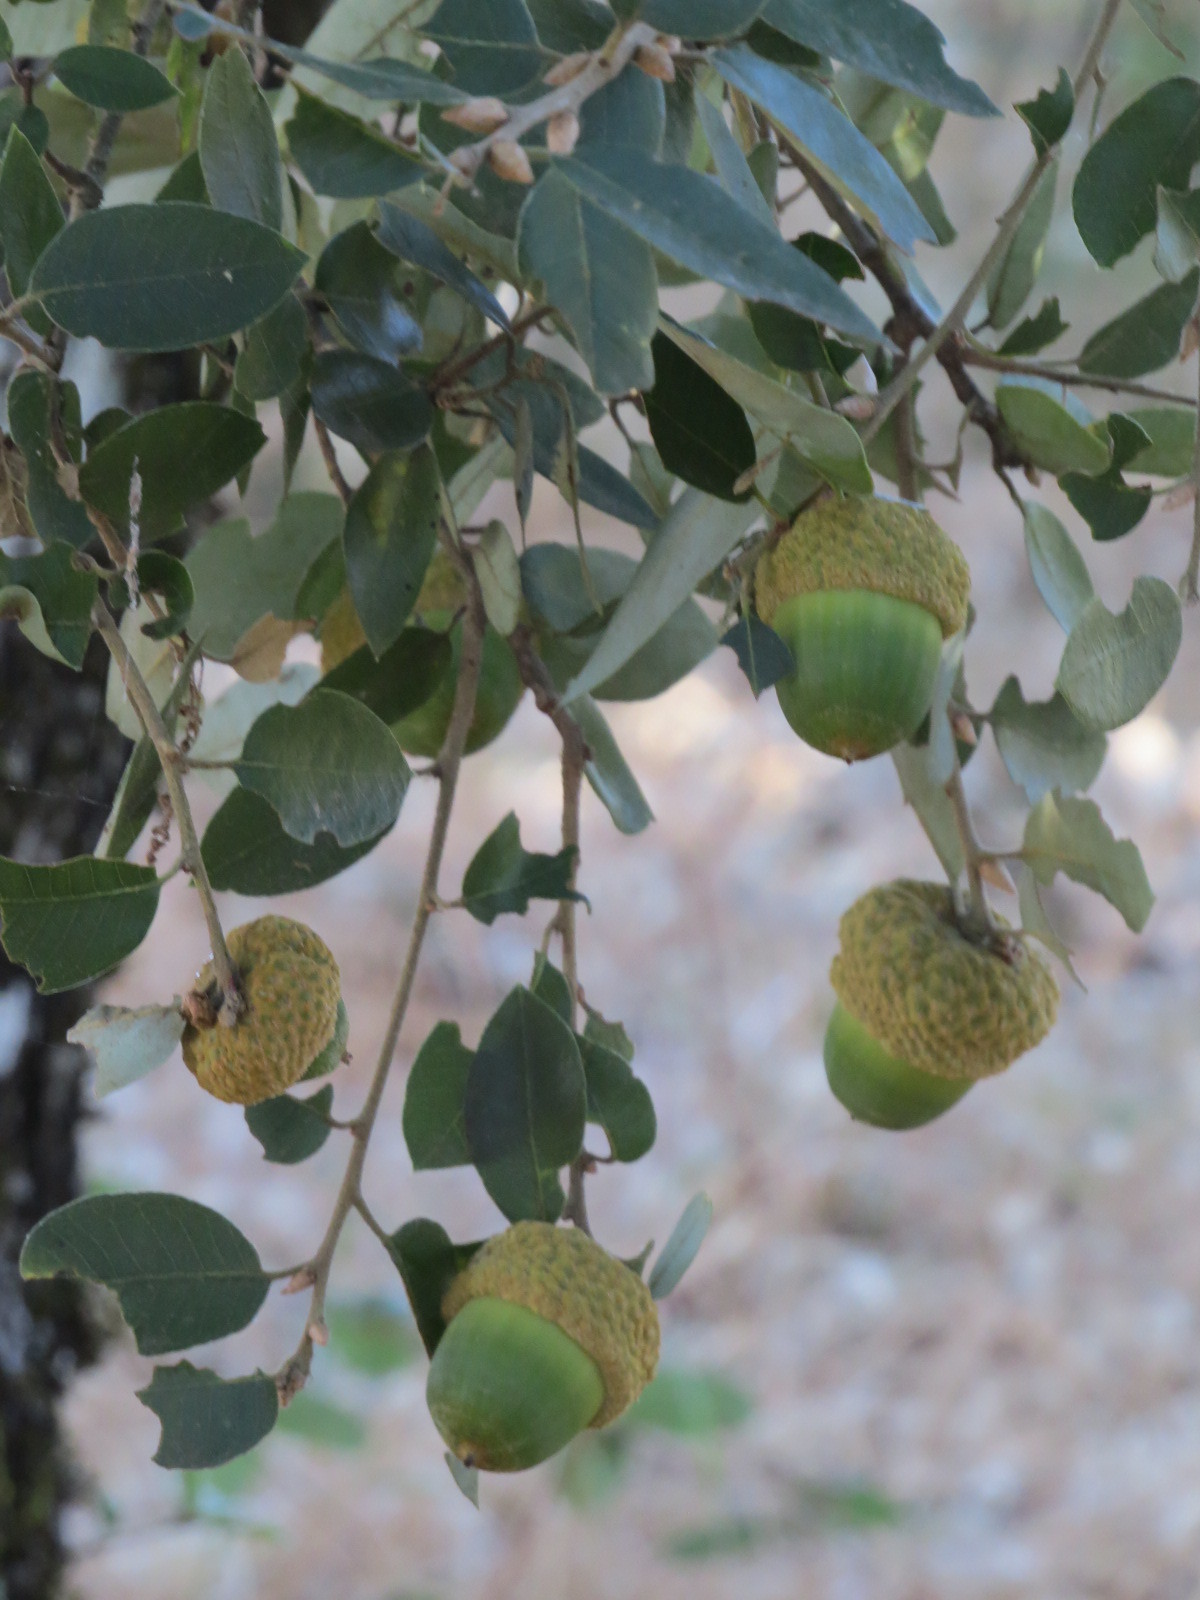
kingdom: Plantae
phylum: Tracheophyta
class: Magnoliopsida
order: Fagales
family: Fagaceae
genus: Quercus
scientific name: Quercus chrysolepis
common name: Canyon live oak
